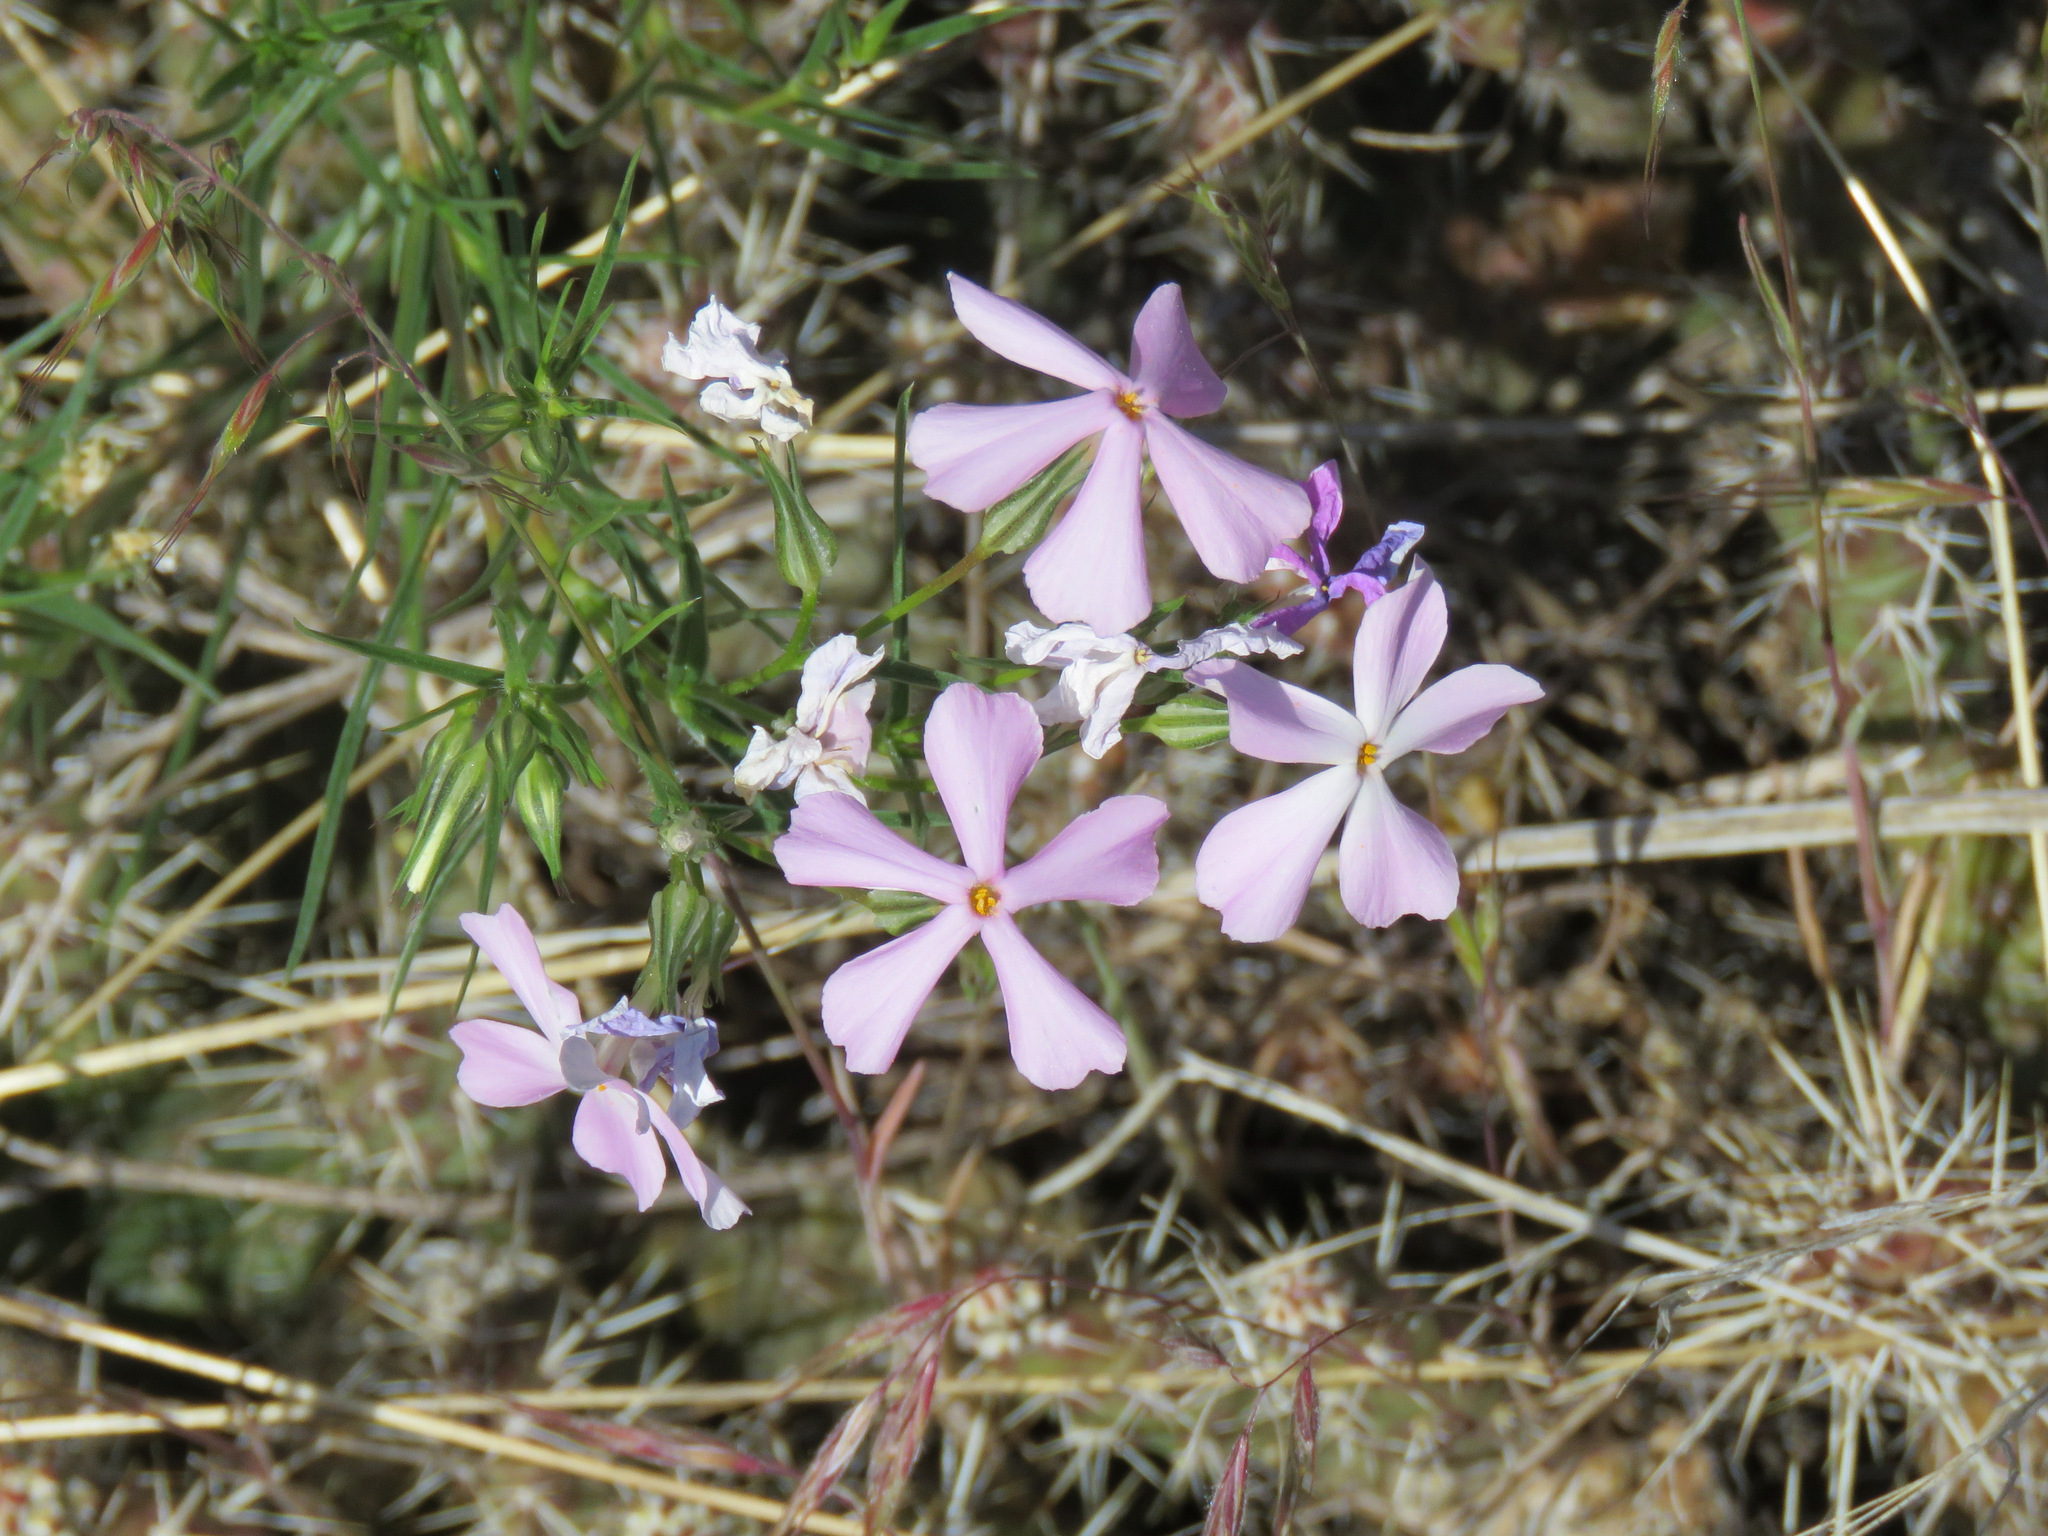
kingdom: Plantae
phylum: Tracheophyta
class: Magnoliopsida
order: Ericales
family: Polemoniaceae
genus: Phlox
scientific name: Phlox longifolia
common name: Longleaf phlox
